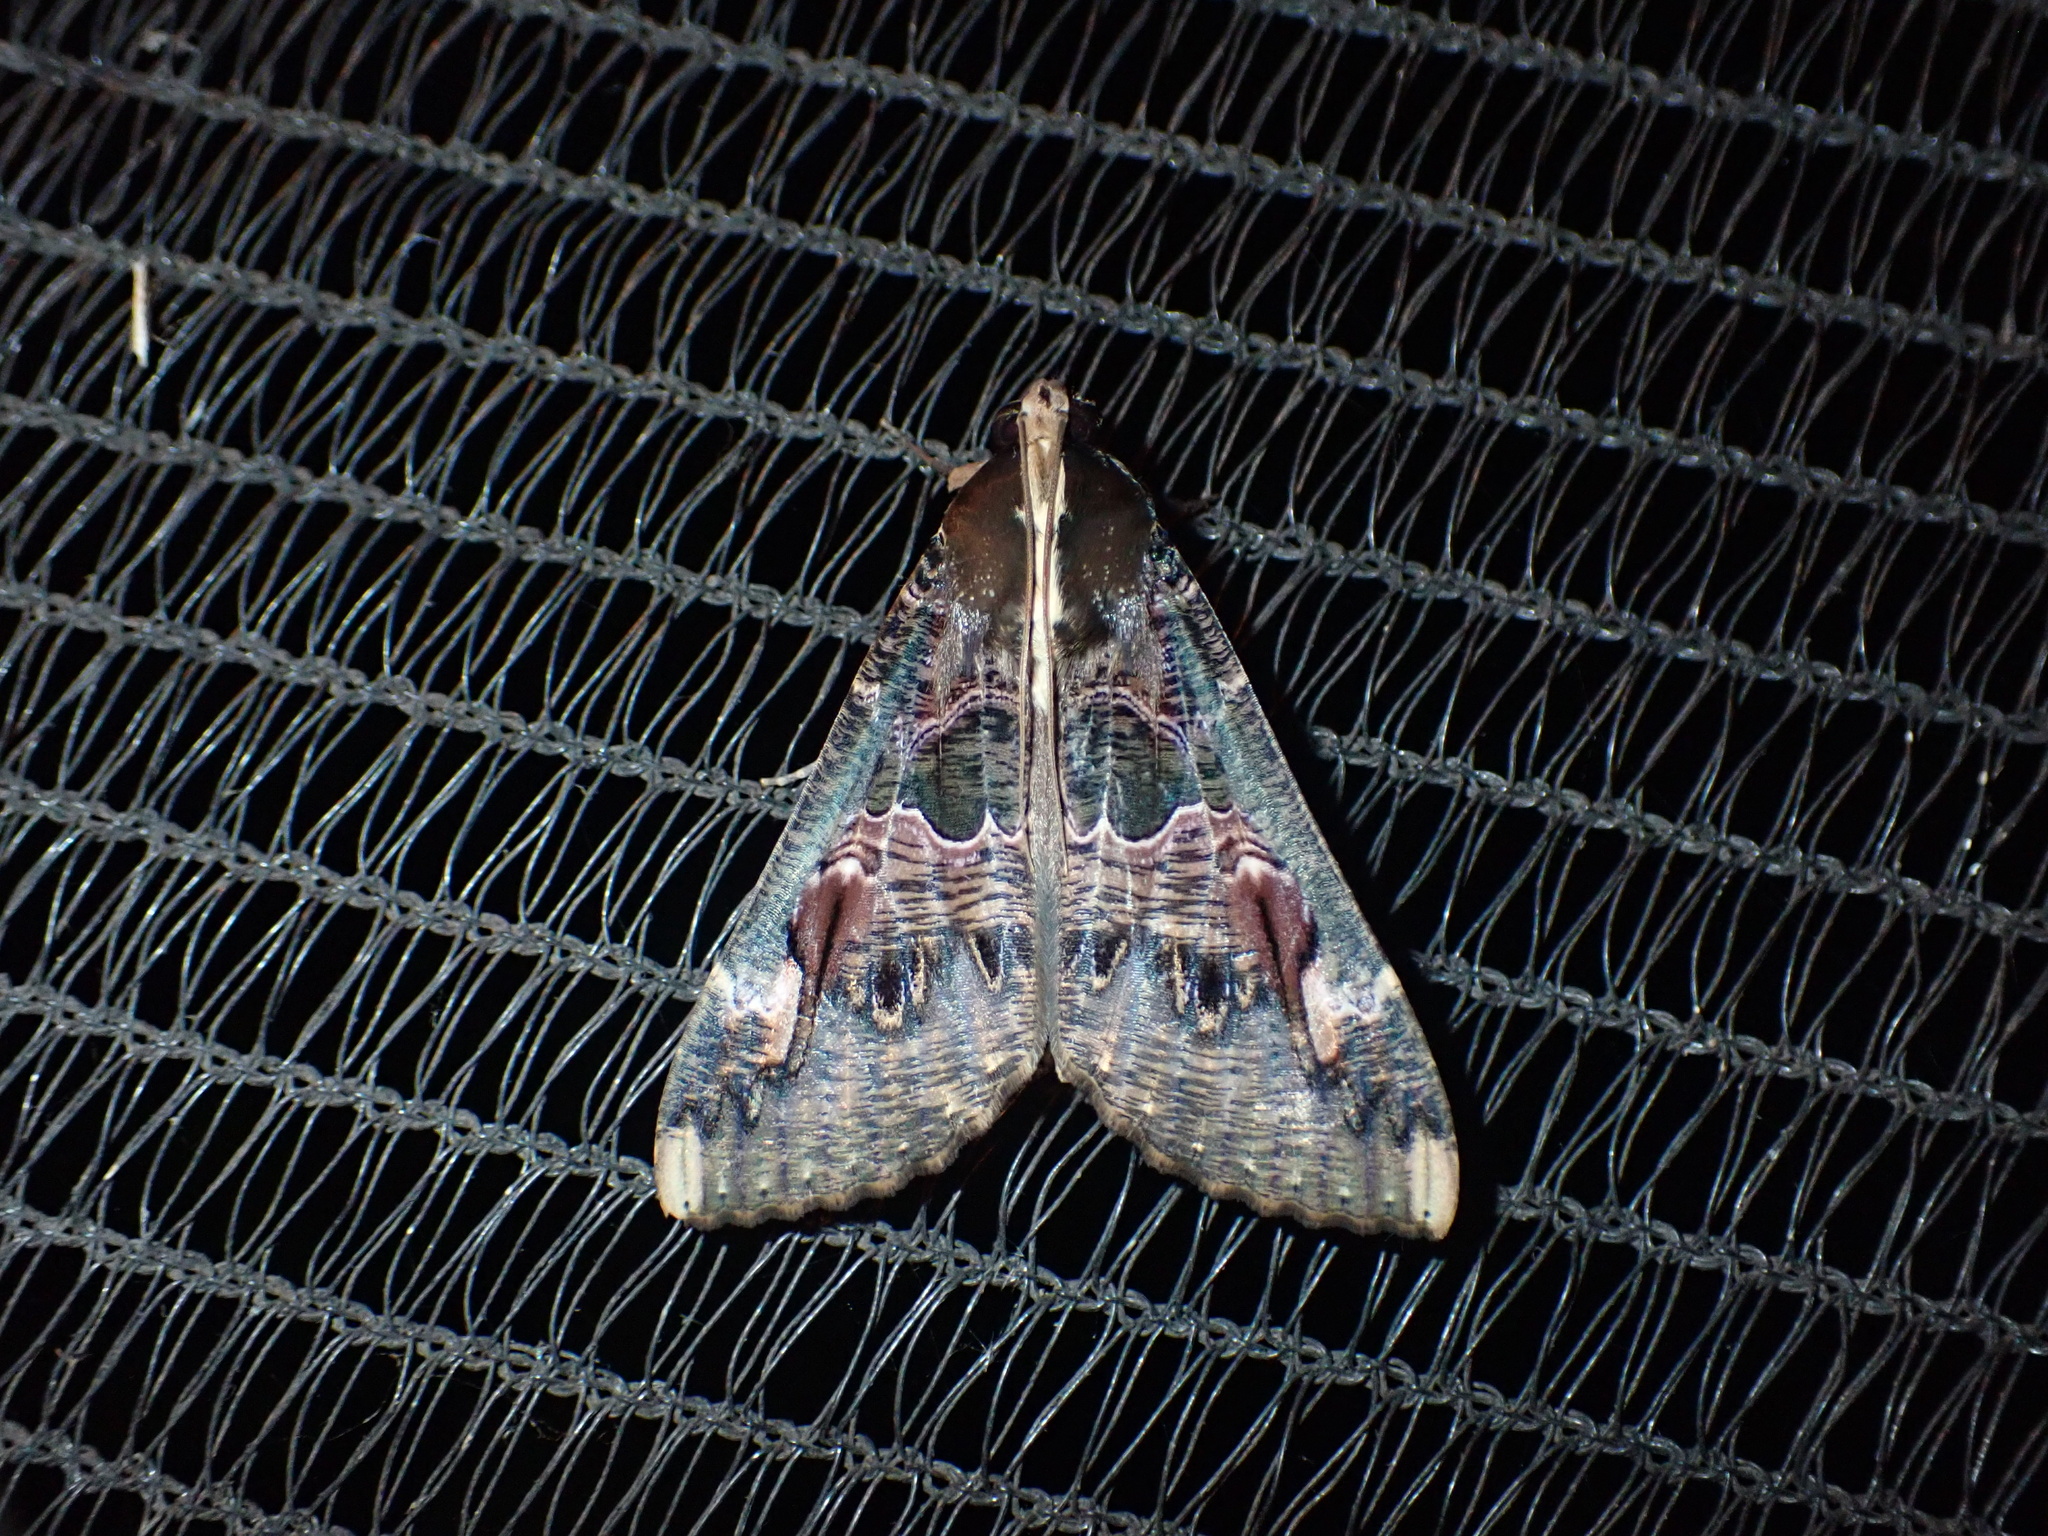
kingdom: Animalia
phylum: Arthropoda
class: Insecta
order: Lepidoptera
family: Erebidae
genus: Sphingomorpha
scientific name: Sphingomorpha chlorea
